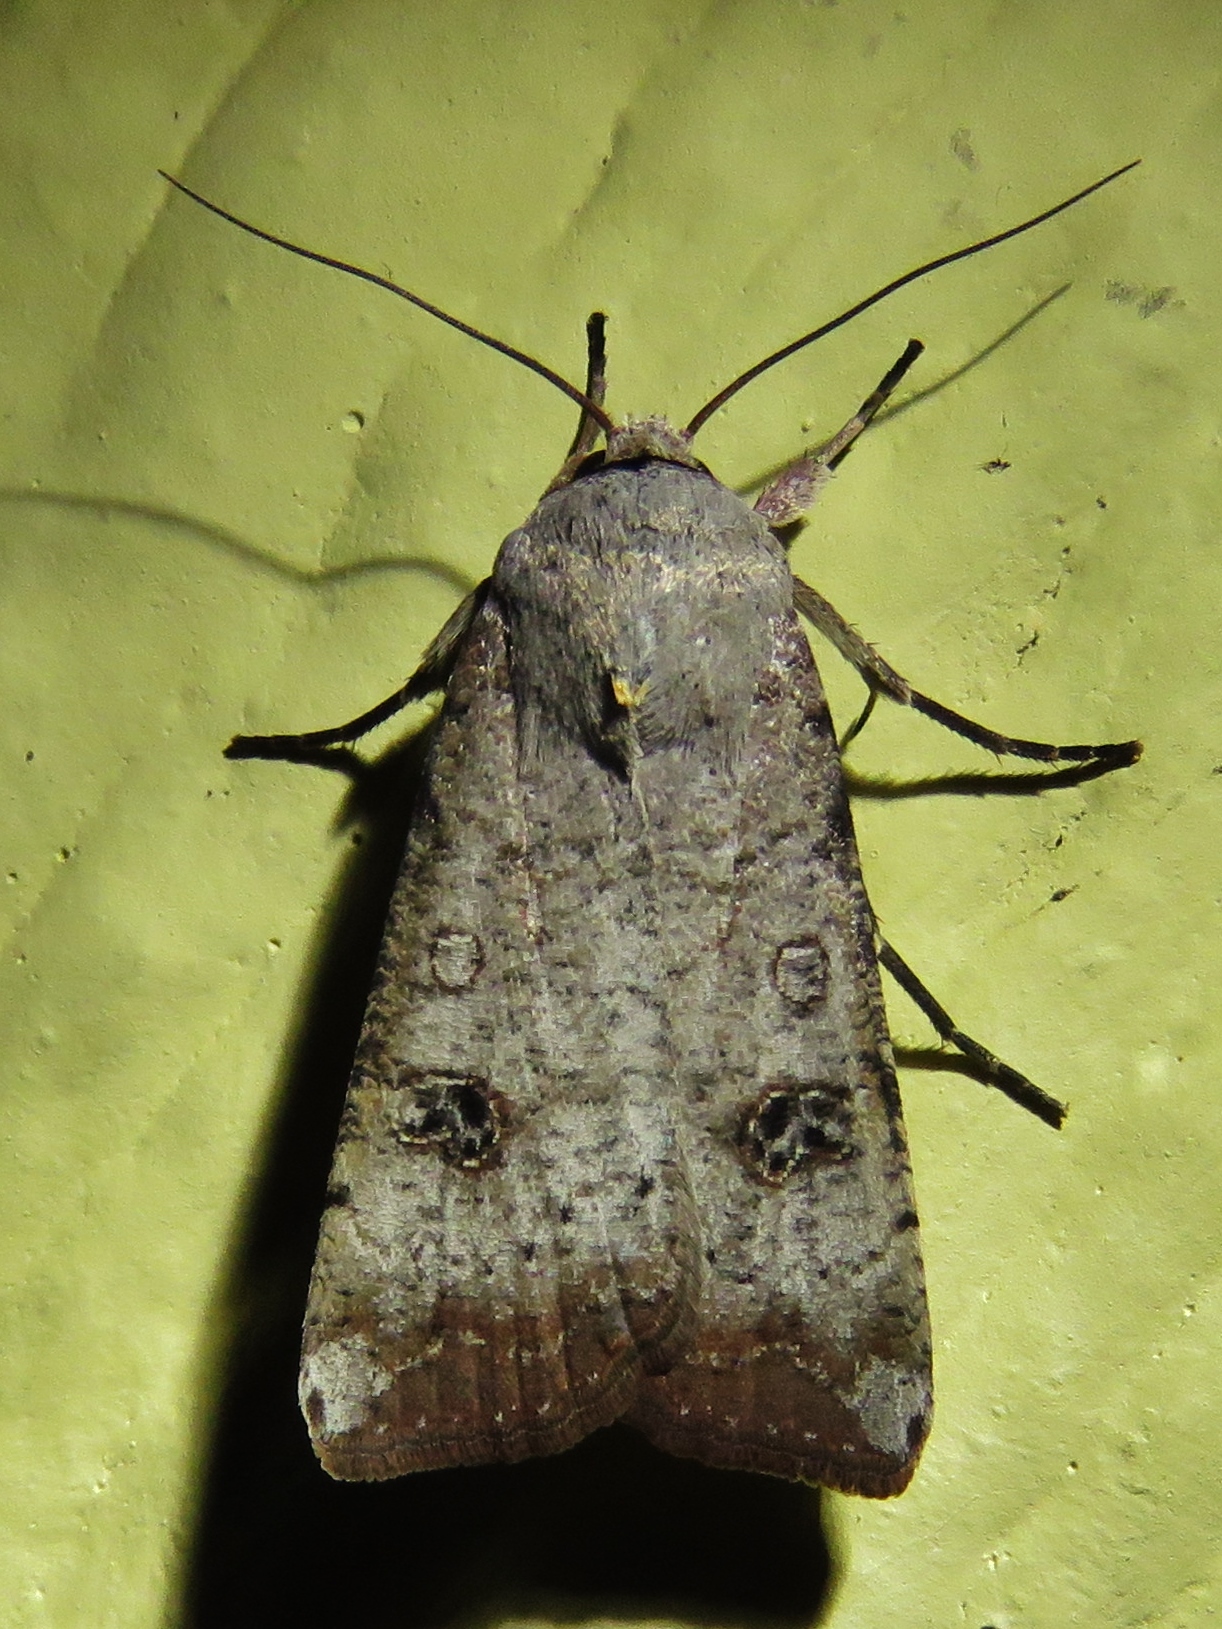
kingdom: Animalia
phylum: Arthropoda
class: Insecta
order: Lepidoptera
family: Noctuidae
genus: Anicla
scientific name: Anicla infecta
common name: Green cutworm
